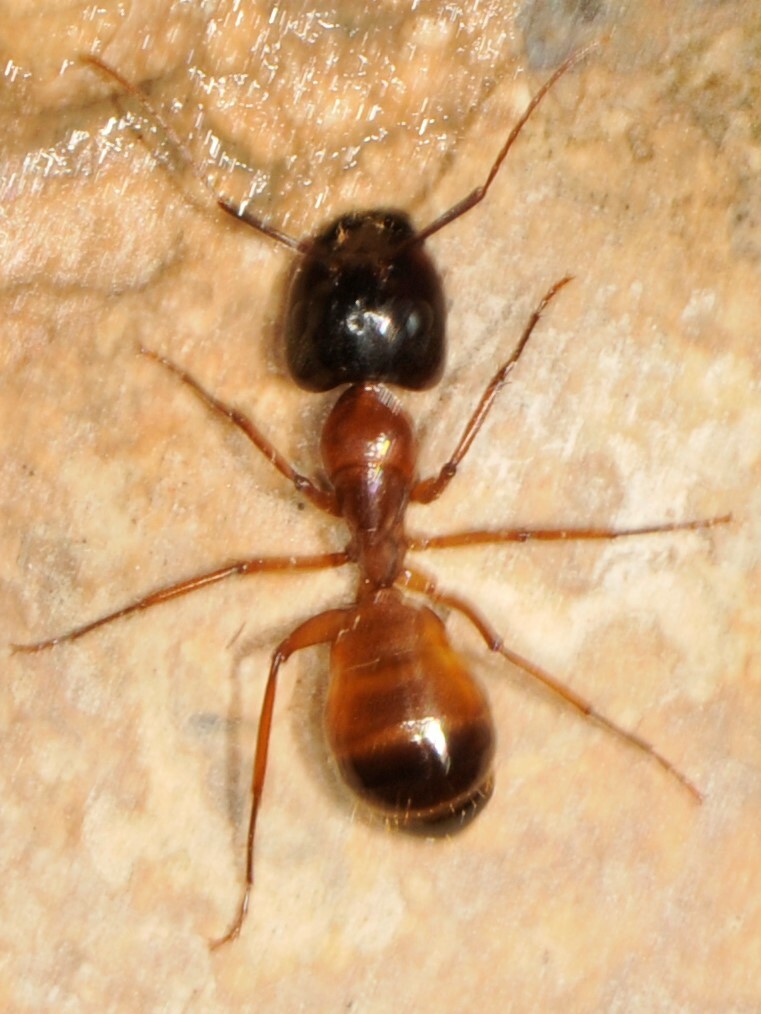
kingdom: Animalia
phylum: Arthropoda
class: Insecta
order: Hymenoptera
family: Formicidae
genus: Camponotus
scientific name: Camponotus
